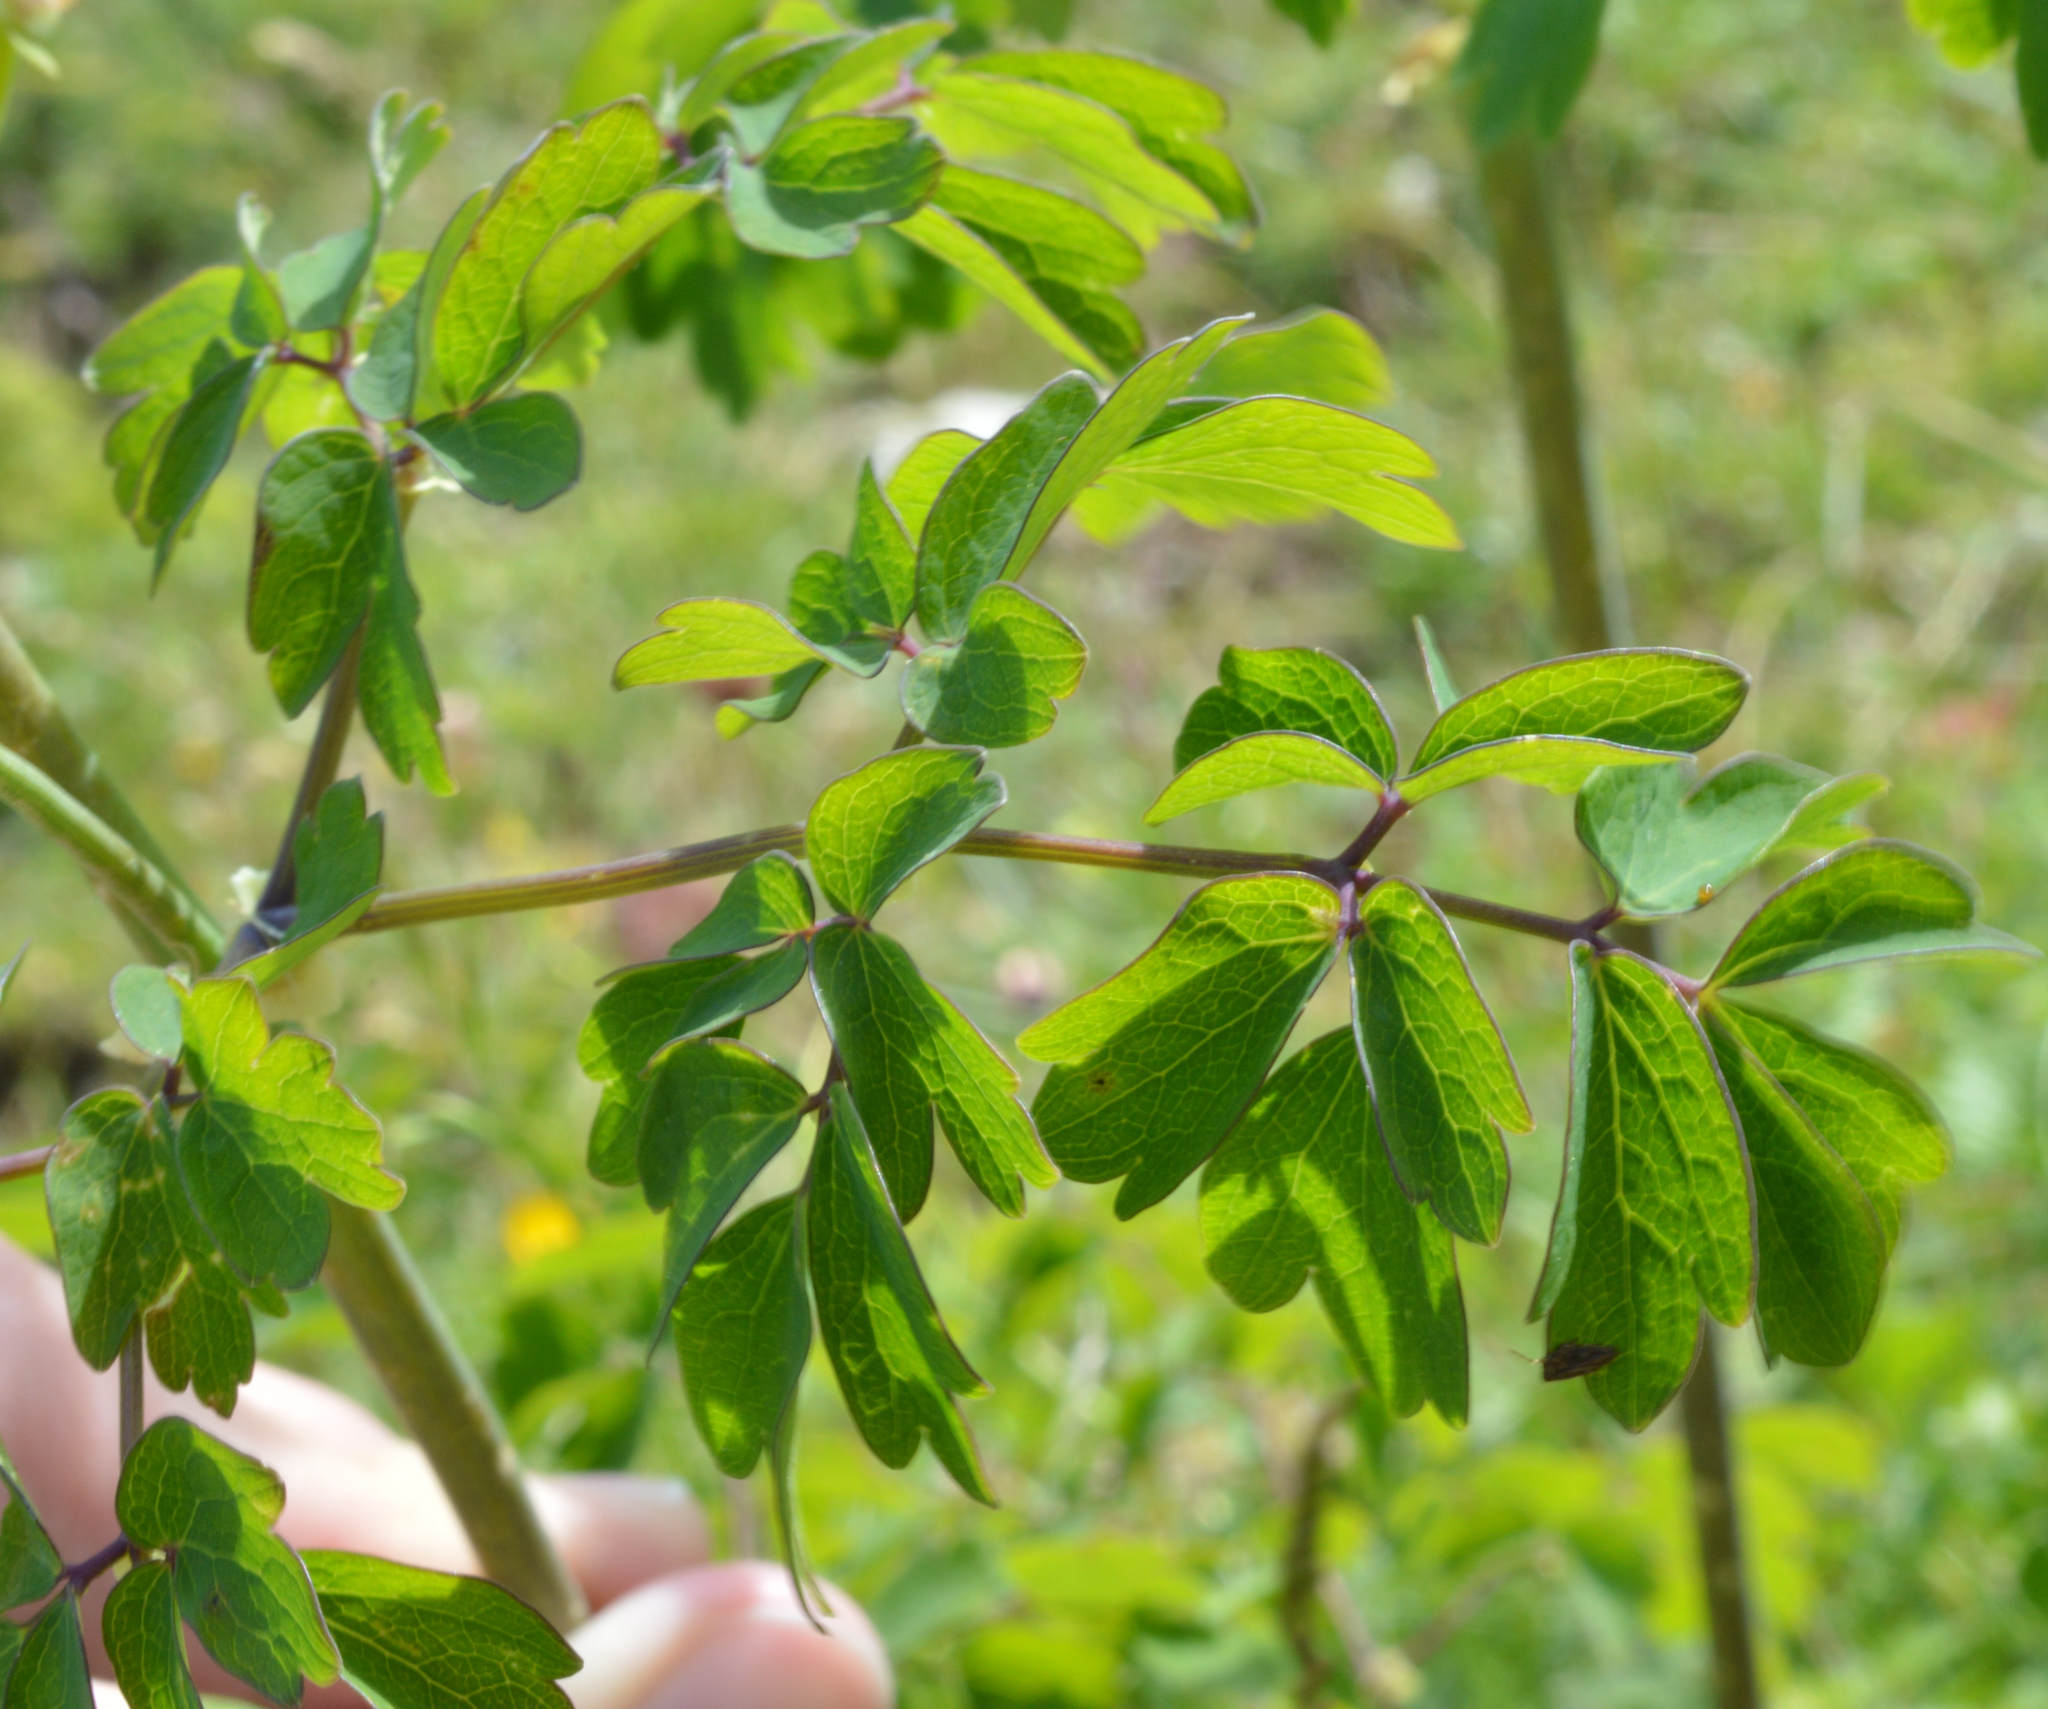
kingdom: Plantae
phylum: Tracheophyta
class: Magnoliopsida
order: Ranunculales
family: Ranunculaceae
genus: Thalictrum
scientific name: Thalictrum aquilegiifolium
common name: French meadow-rue
